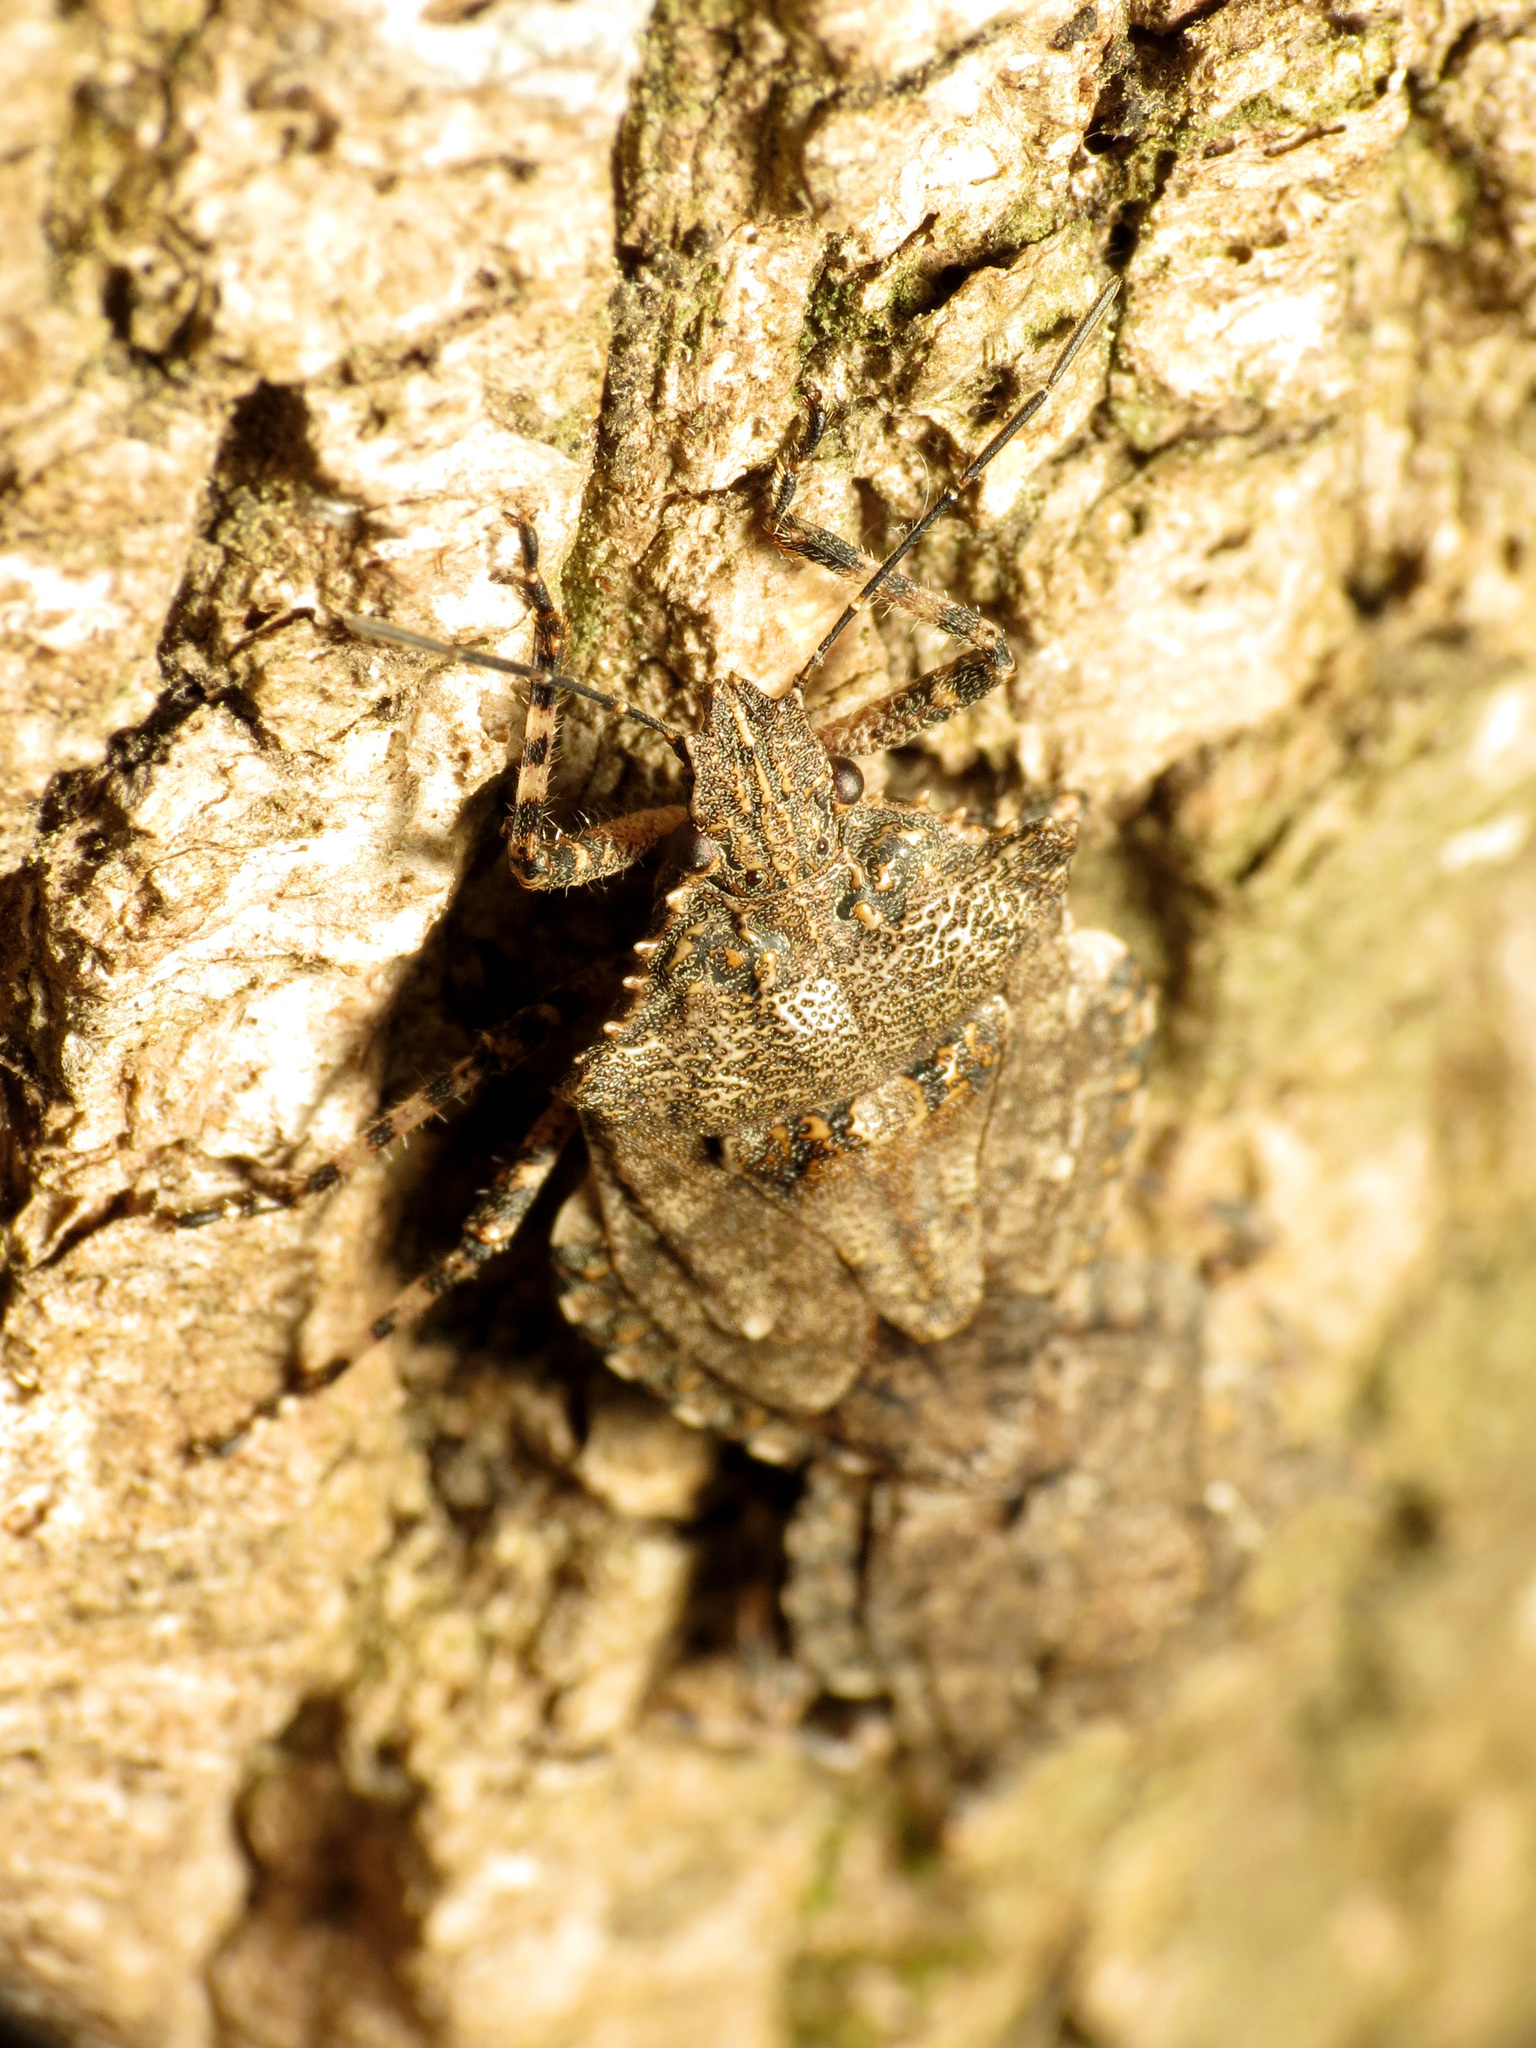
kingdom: Animalia
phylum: Arthropoda
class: Insecta
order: Hemiptera
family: Pentatomidae
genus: Brochymena
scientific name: Brochymena arborea
